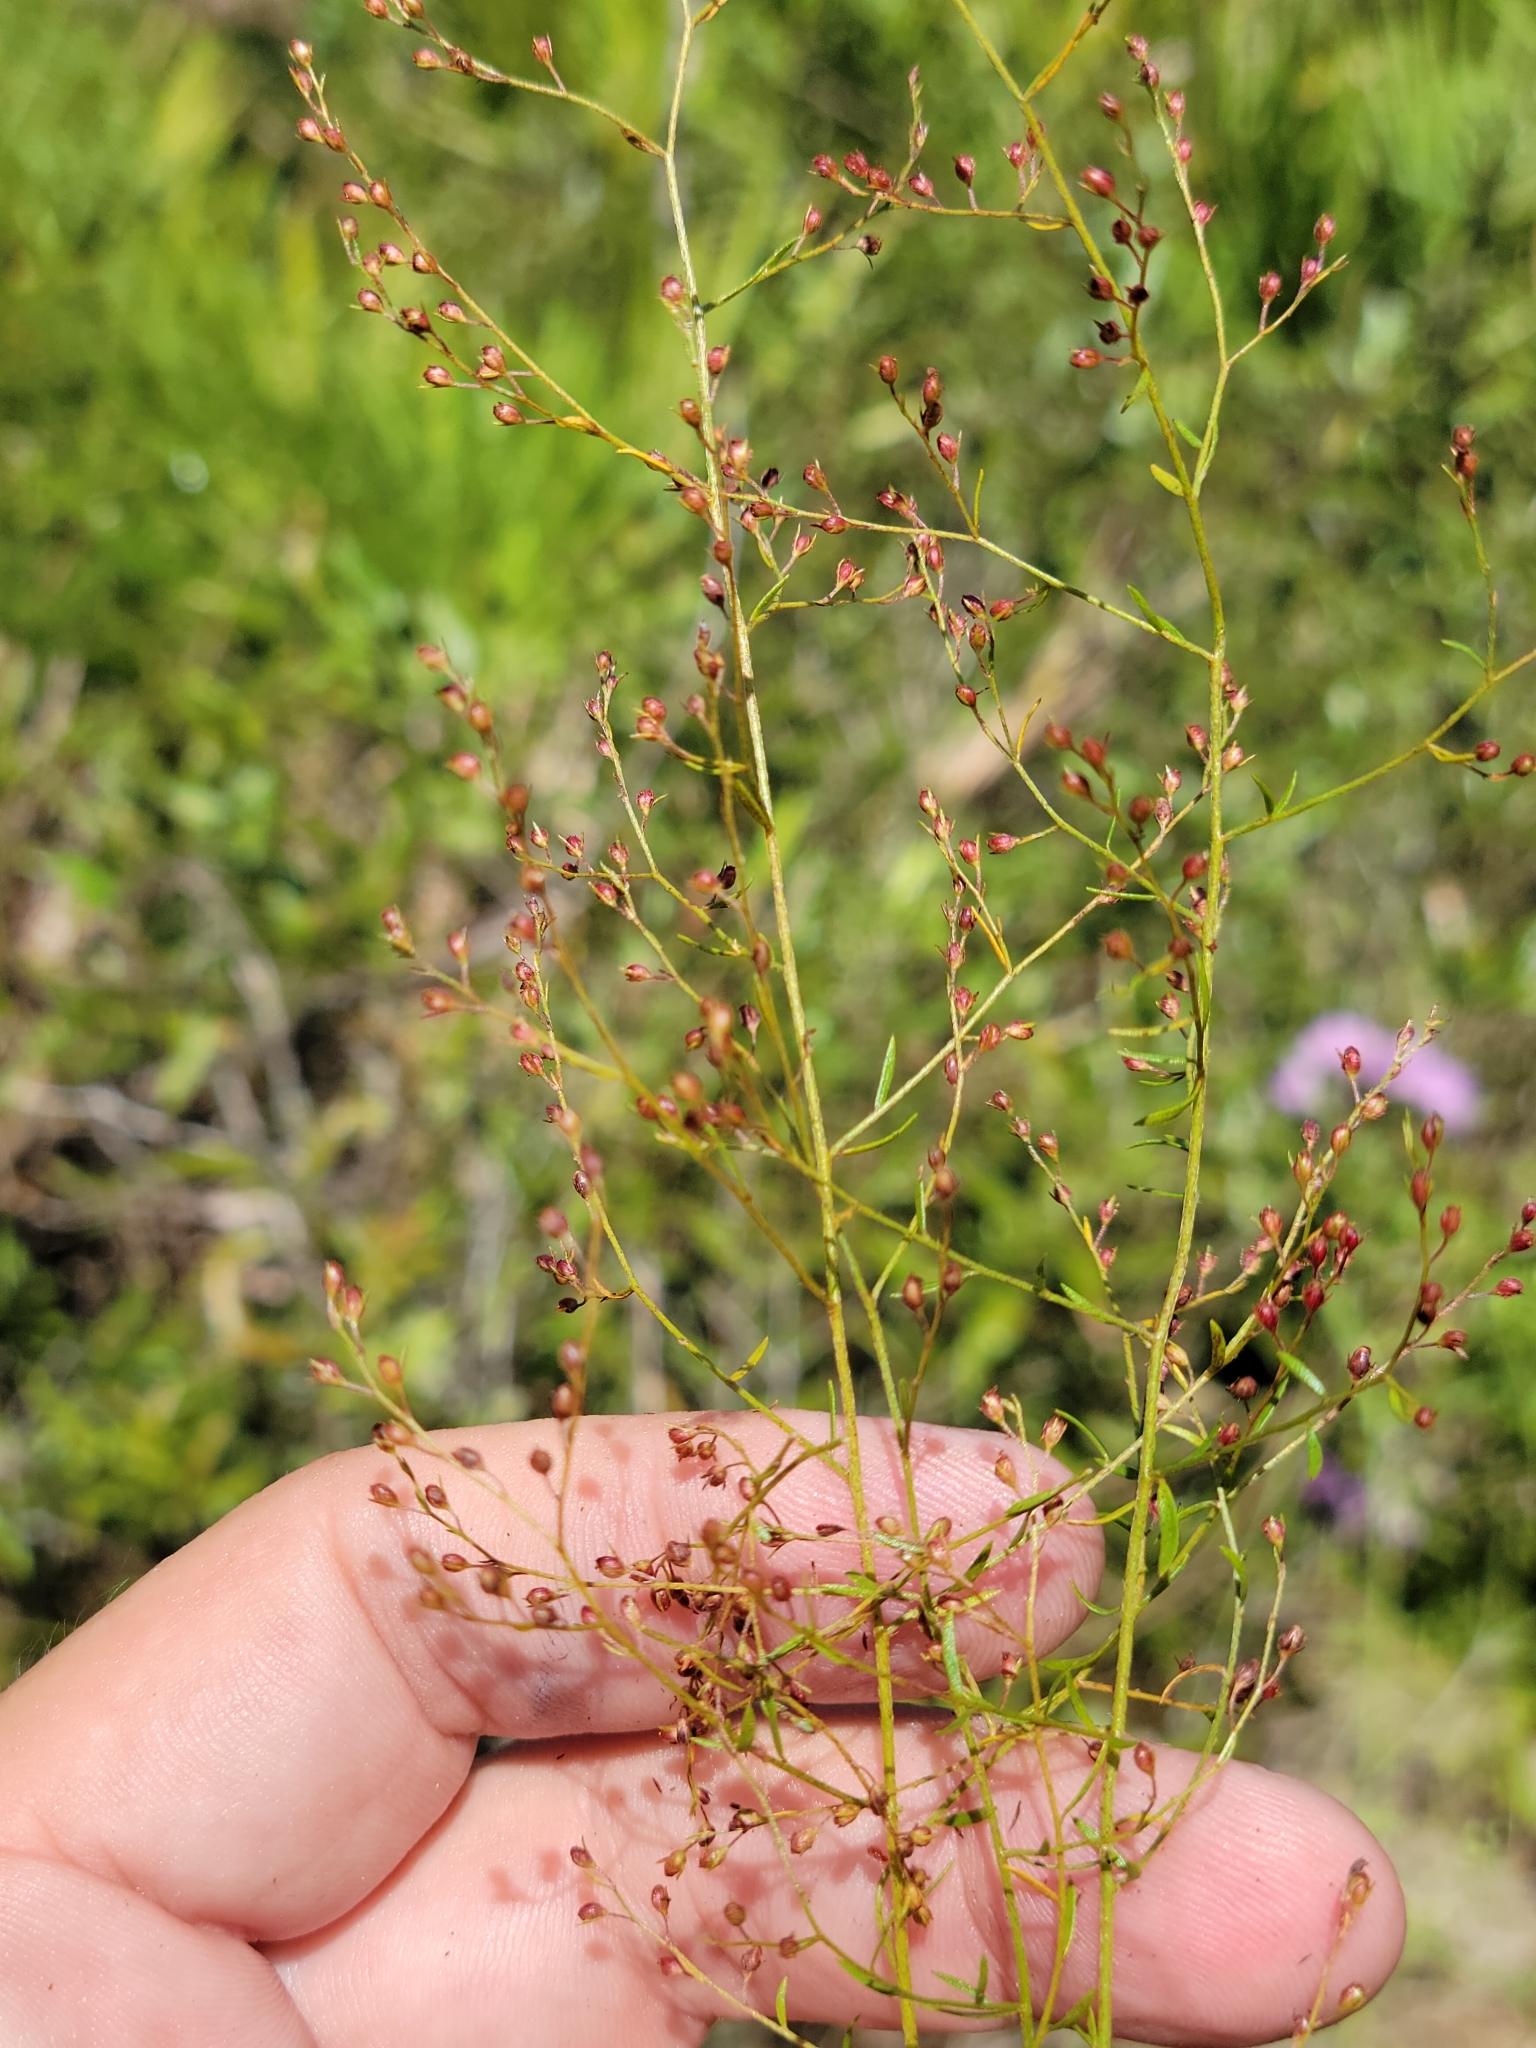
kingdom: Plantae
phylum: Tracheophyta
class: Magnoliopsida
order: Malvales
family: Cistaceae
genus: Lechea
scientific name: Lechea sessiliflora
